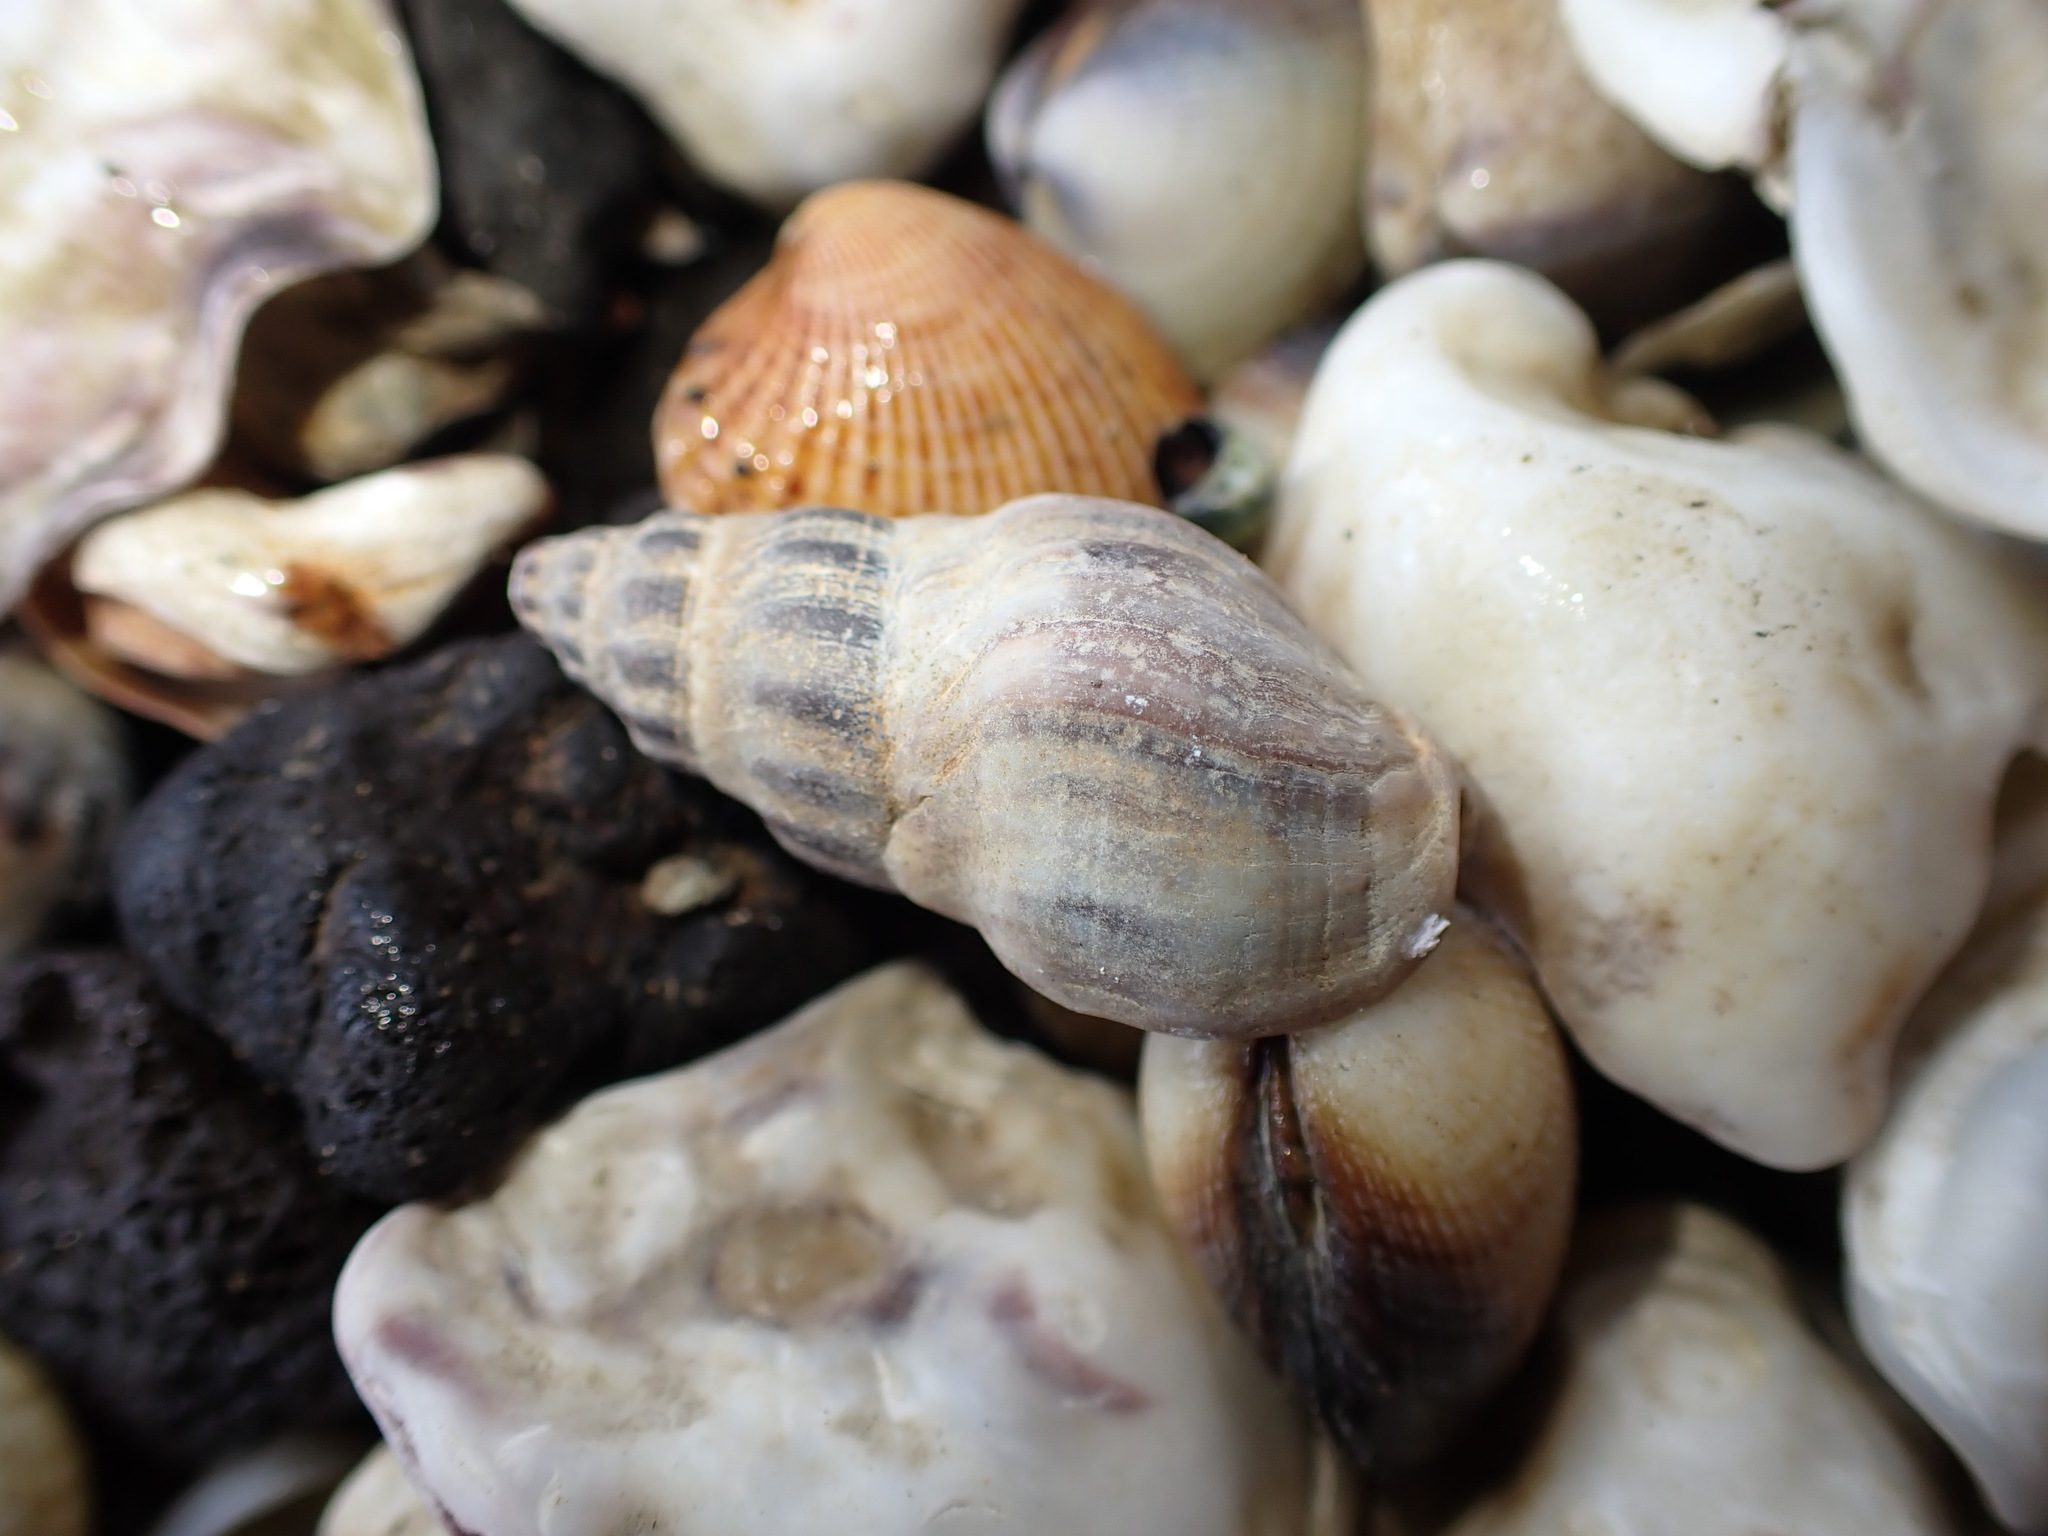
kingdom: Animalia
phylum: Mollusca
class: Gastropoda
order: Neogastropoda
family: Cominellidae
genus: Cominella
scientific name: Cominella glandiformis
